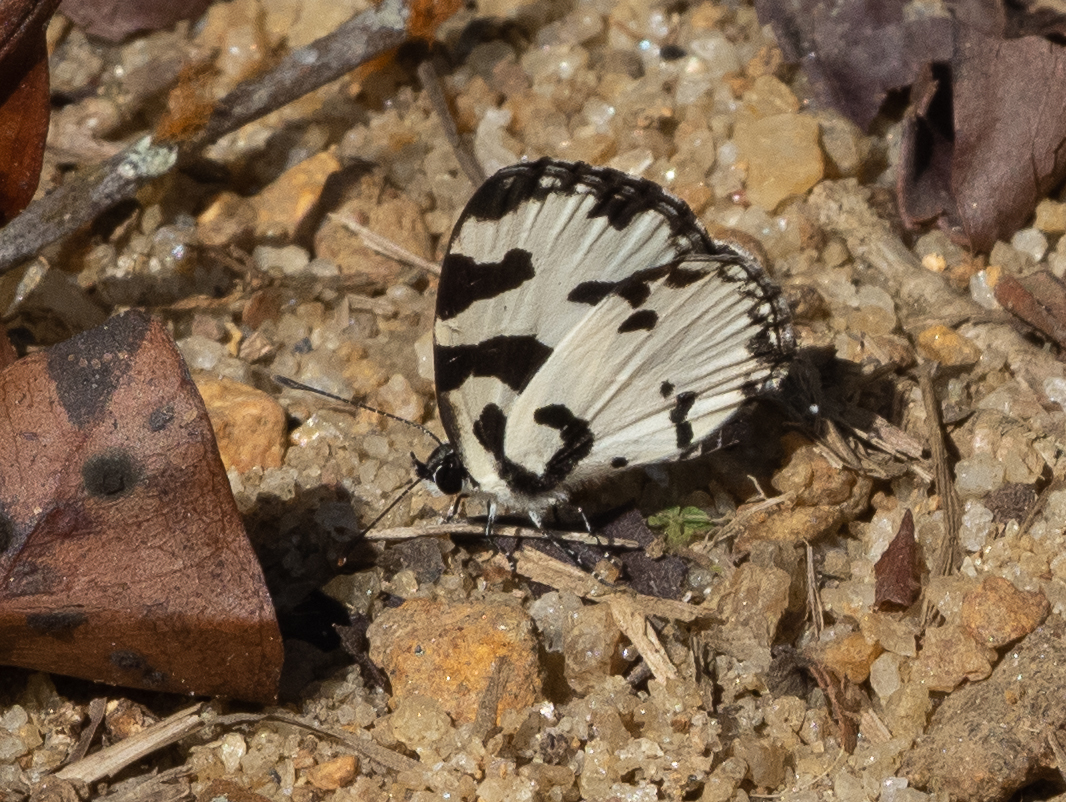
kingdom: Animalia
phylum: Arthropoda
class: Insecta
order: Lepidoptera
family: Lycaenidae
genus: Caleta
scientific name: Caleta decidia
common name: Angled pierrot
